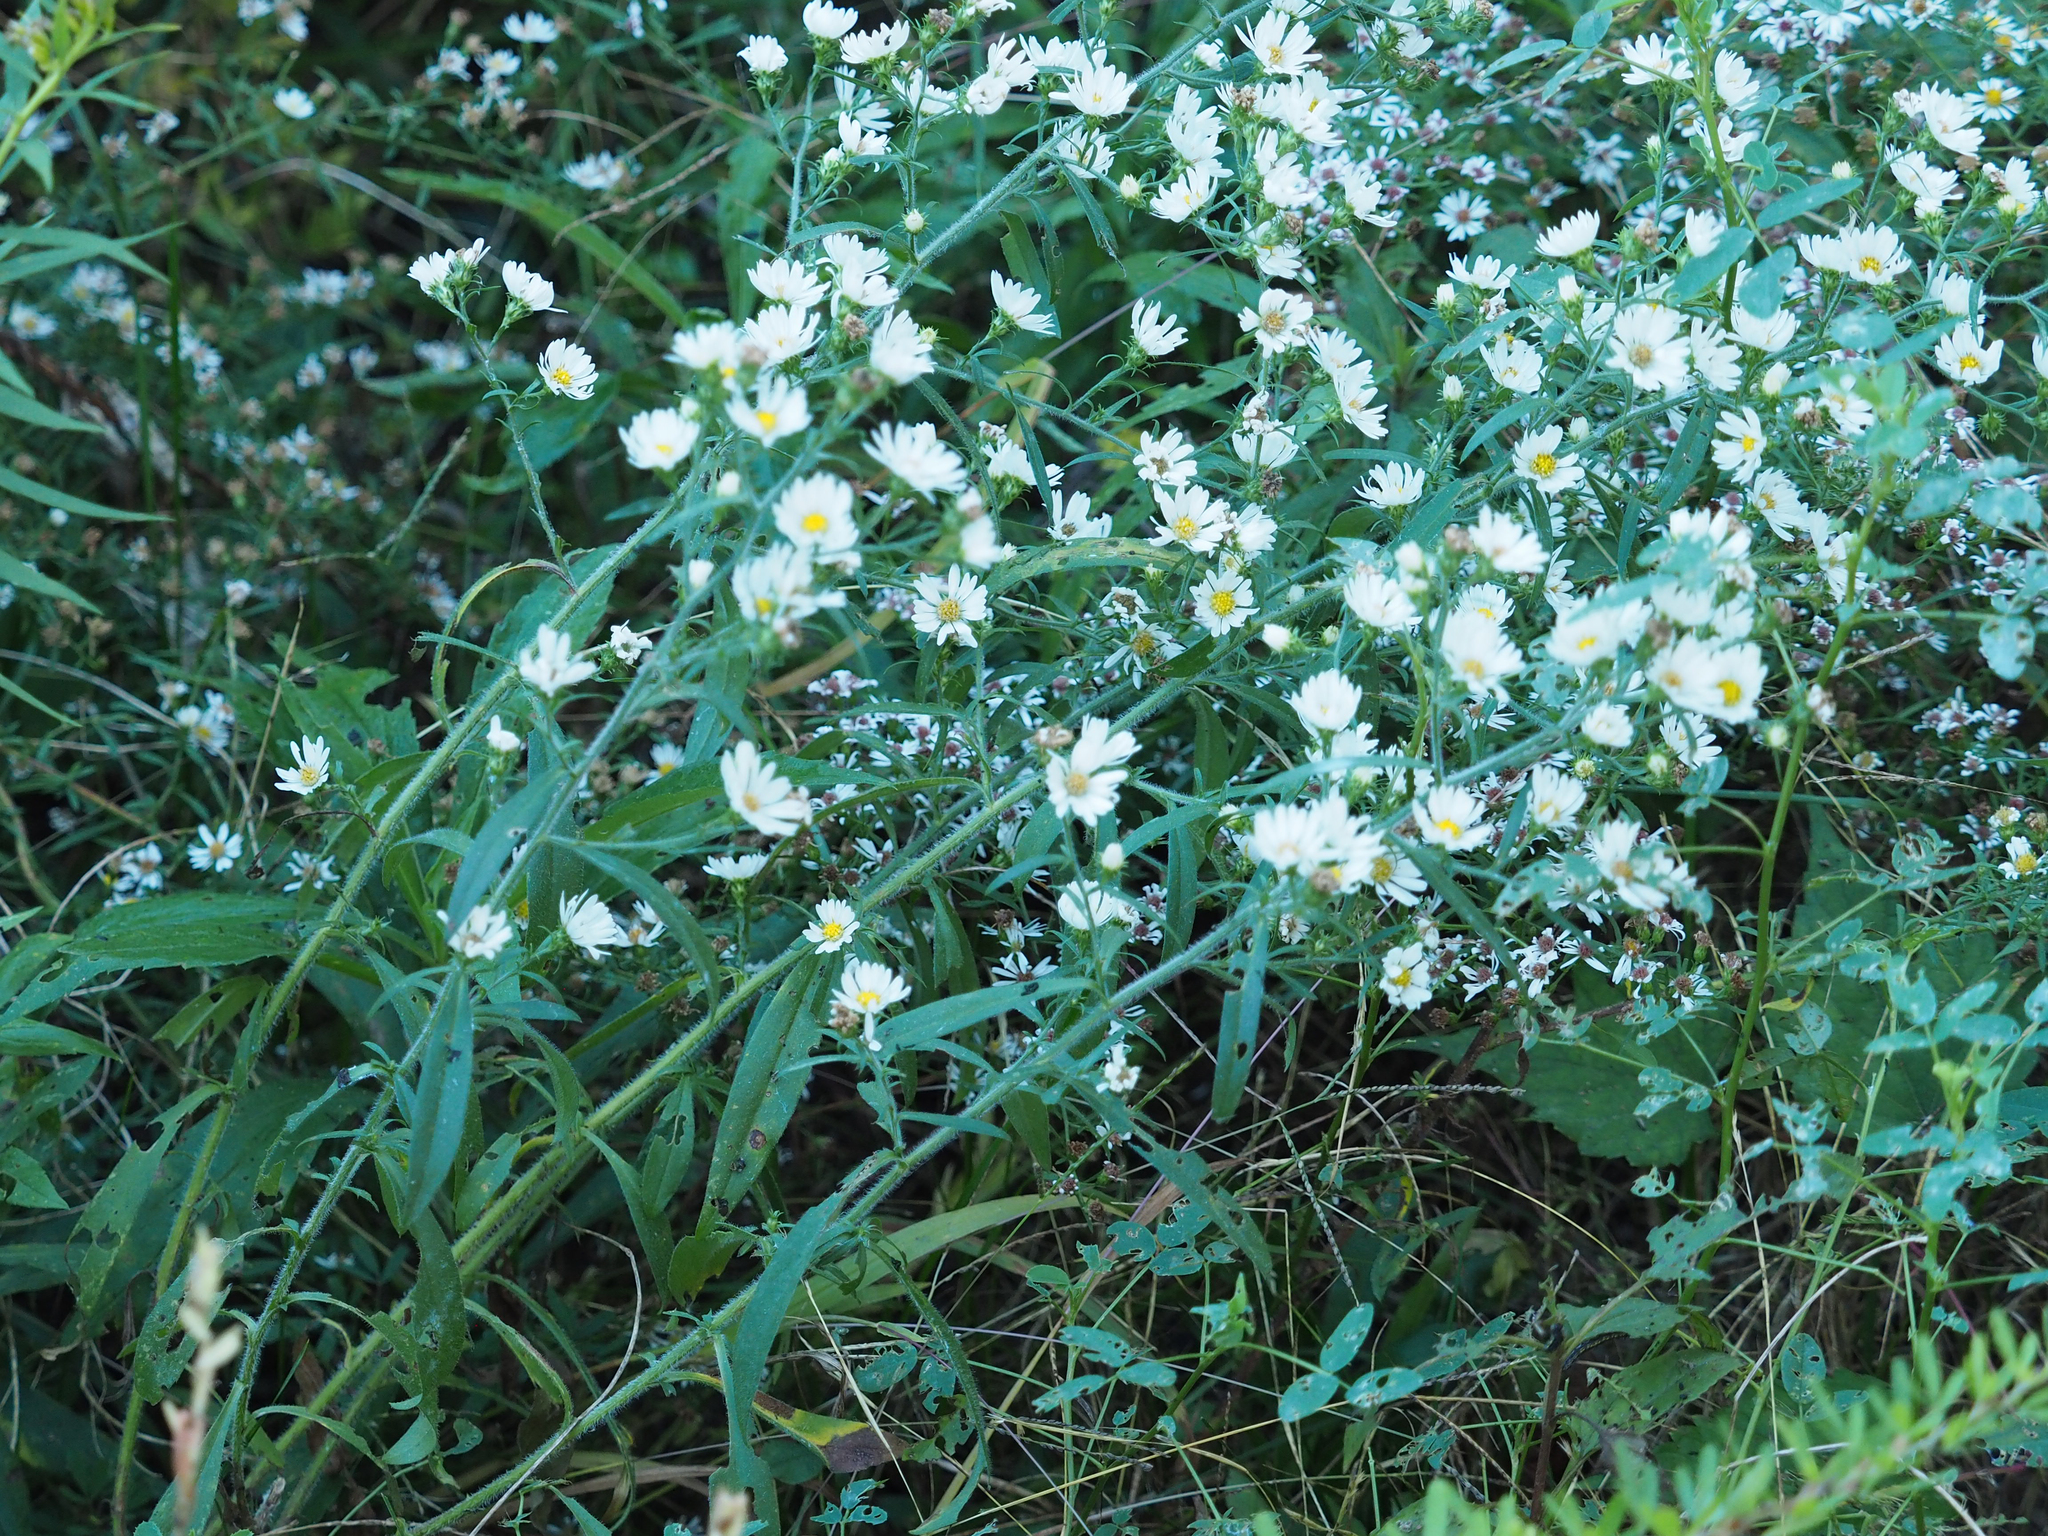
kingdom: Plantae
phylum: Tracheophyta
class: Magnoliopsida
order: Asterales
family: Asteraceae
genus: Symphyotrichum
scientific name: Symphyotrichum pilosum
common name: Awl aster
